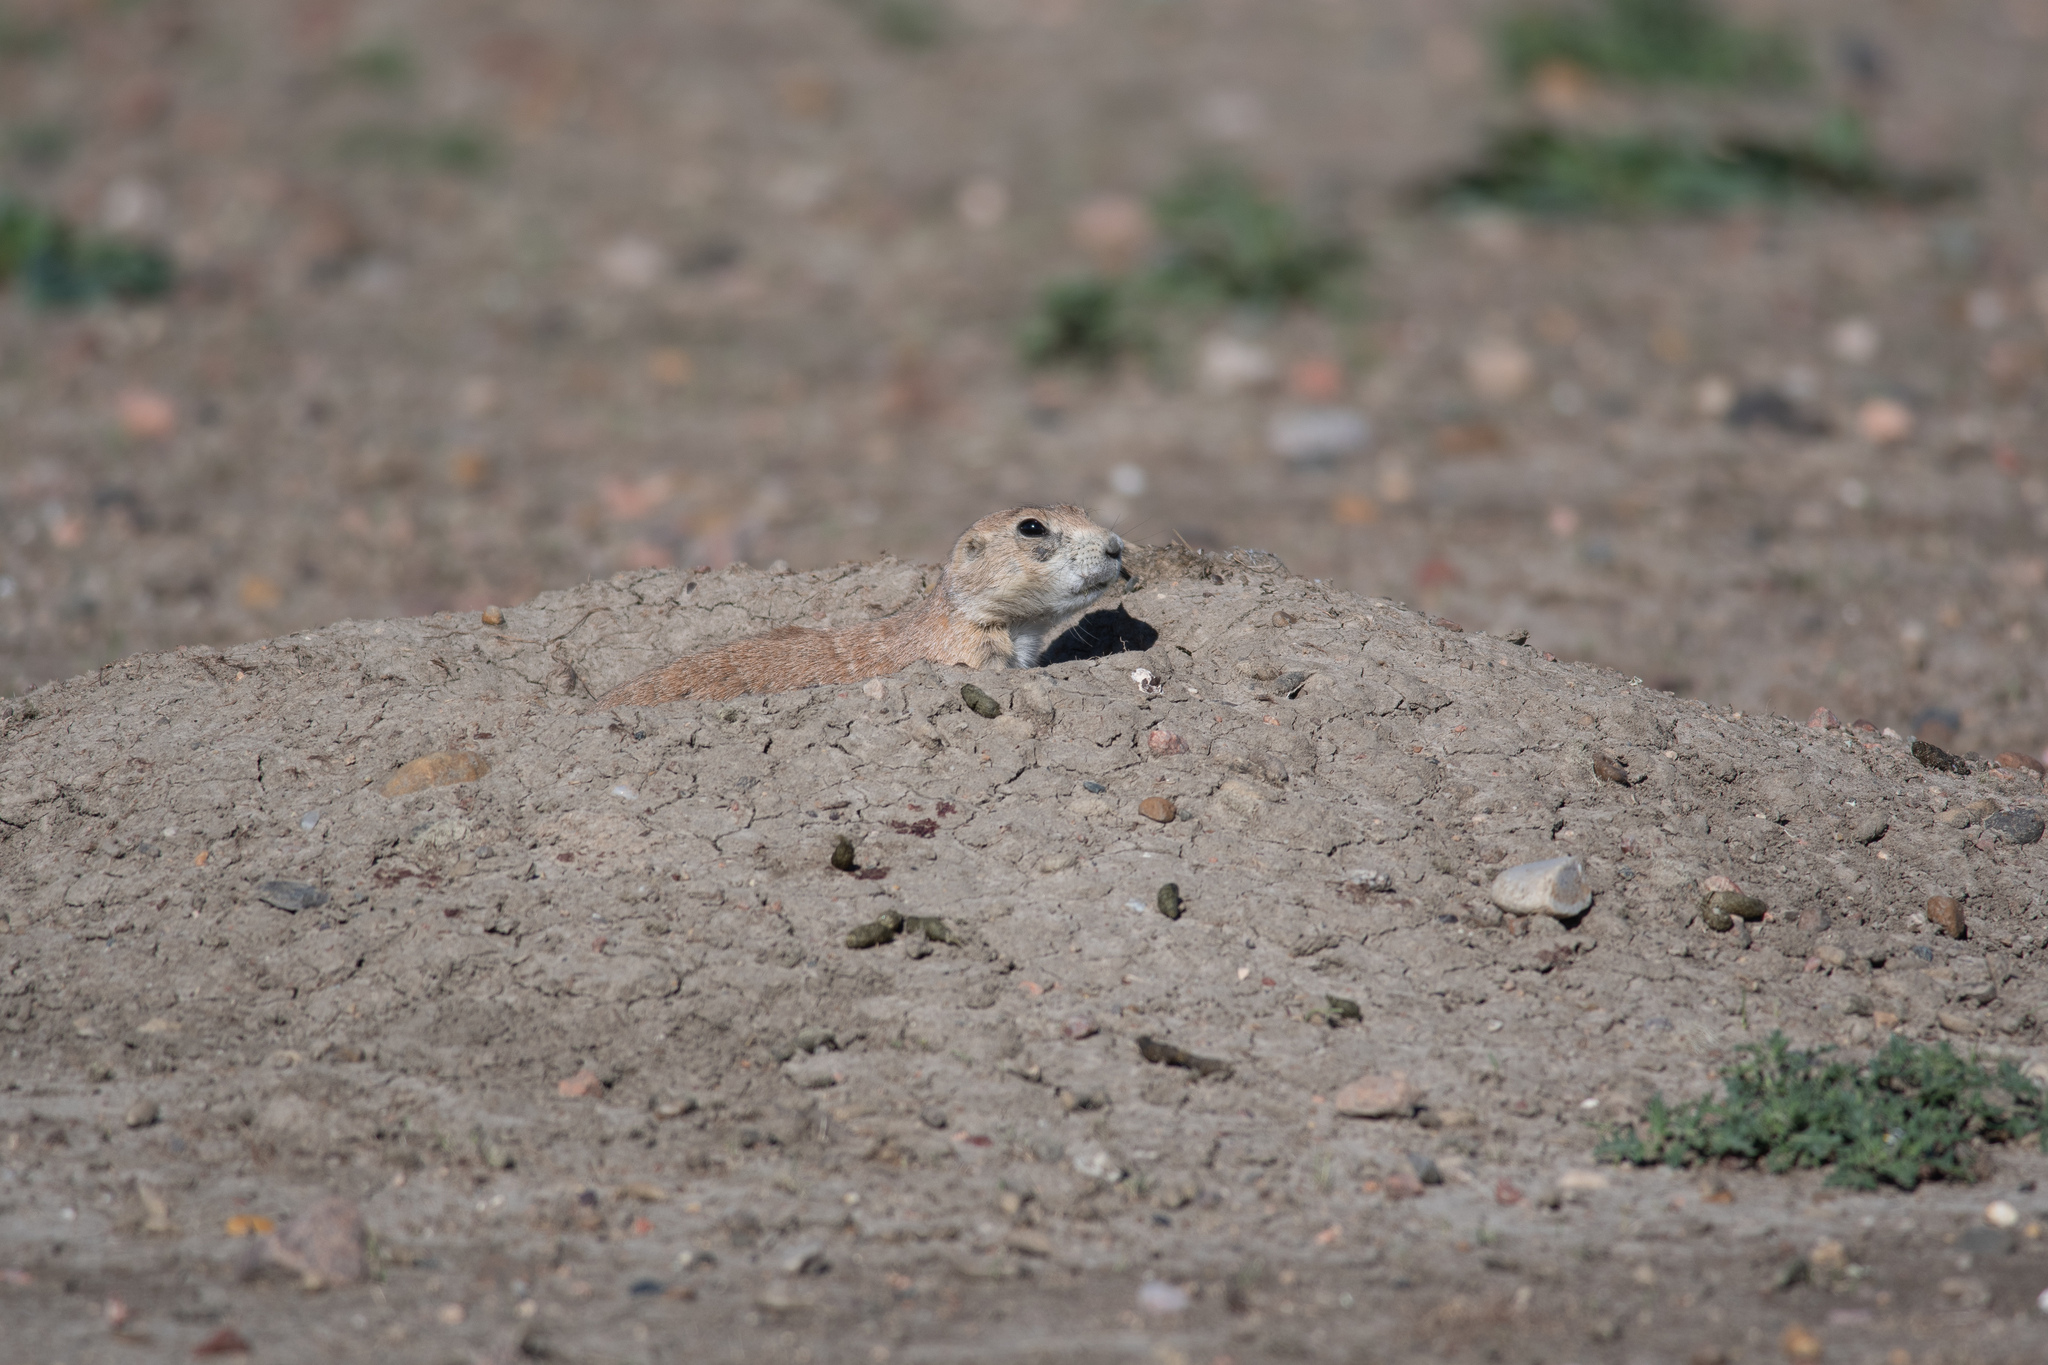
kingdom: Animalia
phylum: Chordata
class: Mammalia
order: Rodentia
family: Sciuridae
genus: Cynomys
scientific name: Cynomys ludovicianus
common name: Black-tailed prairie dog
